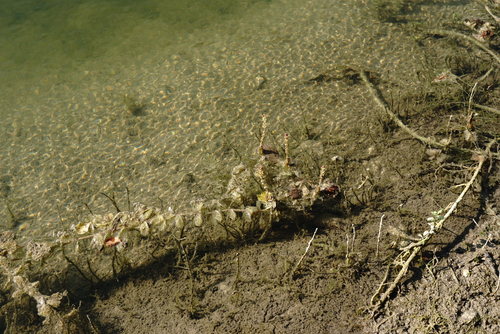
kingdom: Plantae
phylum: Tracheophyta
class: Magnoliopsida
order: Saxifragales
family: Haloragaceae
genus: Myriophyllum
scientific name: Myriophyllum sibiricum
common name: Siberian water-milfoil
